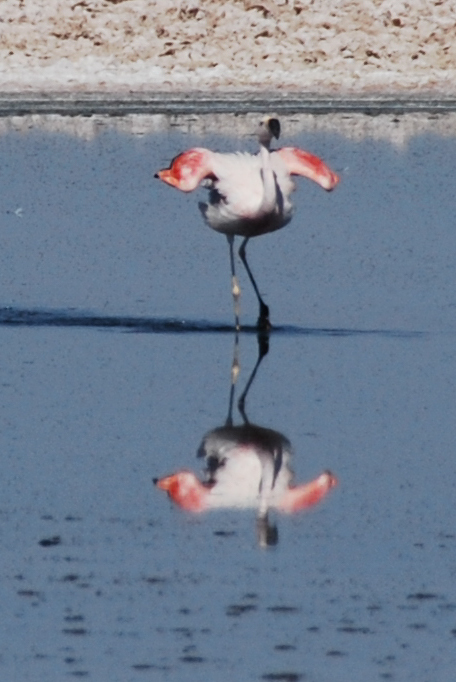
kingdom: Animalia
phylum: Chordata
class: Aves
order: Phoenicopteriformes
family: Phoenicopteridae
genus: Phoenicoparrus
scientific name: Phoenicoparrus jamesi
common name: James's flamingo
